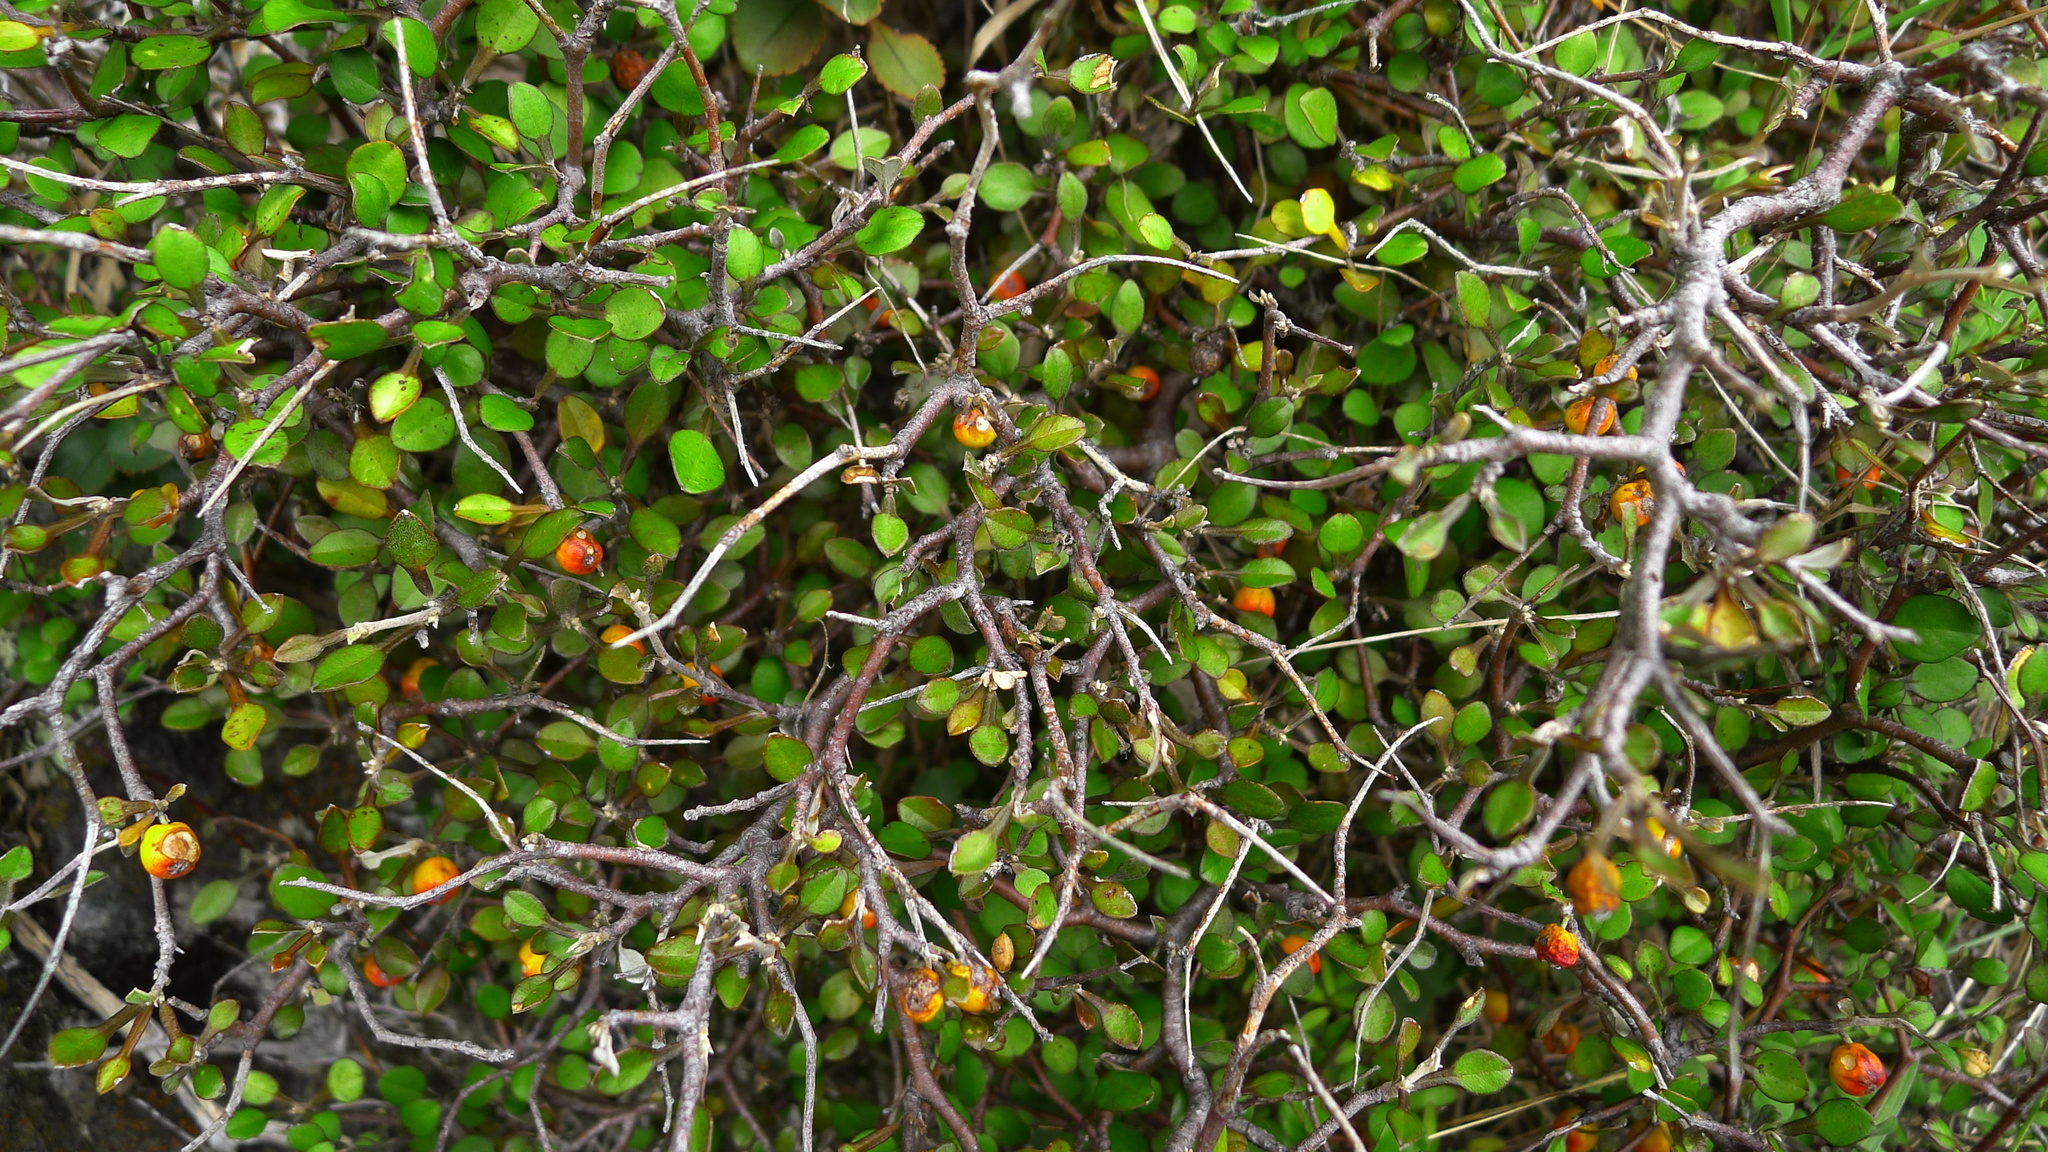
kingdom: Plantae
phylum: Tracheophyta
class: Magnoliopsida
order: Asterales
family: Argophyllaceae
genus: Corokia
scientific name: Corokia cotoneaster
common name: Wire nettingbush
